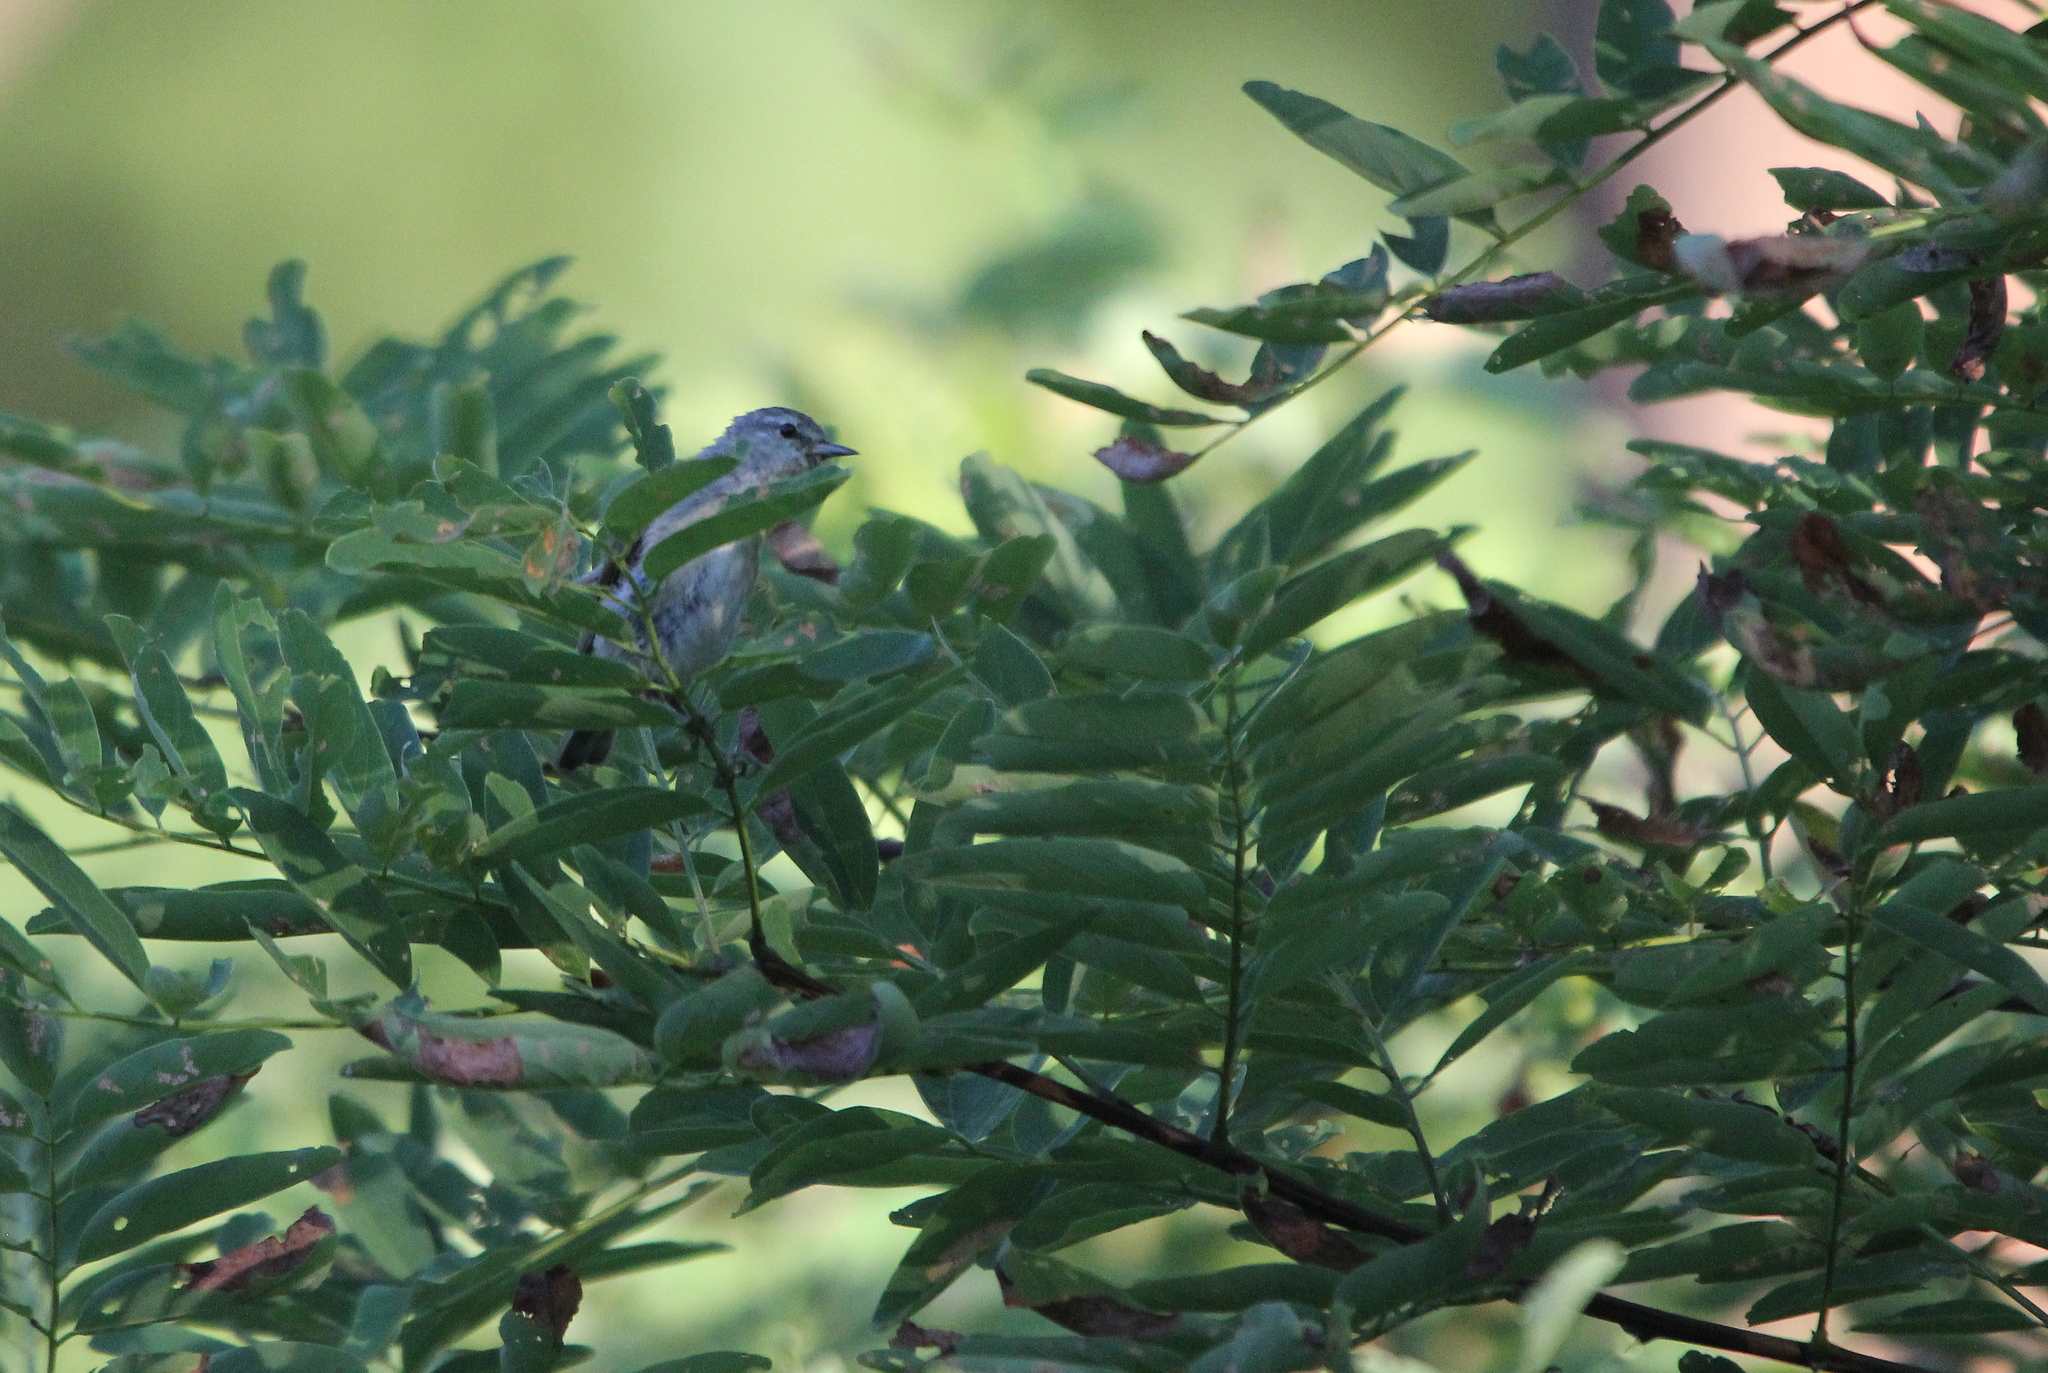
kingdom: Animalia
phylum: Chordata
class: Aves
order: Passeriformes
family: Parulidae
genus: Leiothlypis
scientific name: Leiothlypis peregrina
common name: Tennessee warbler
